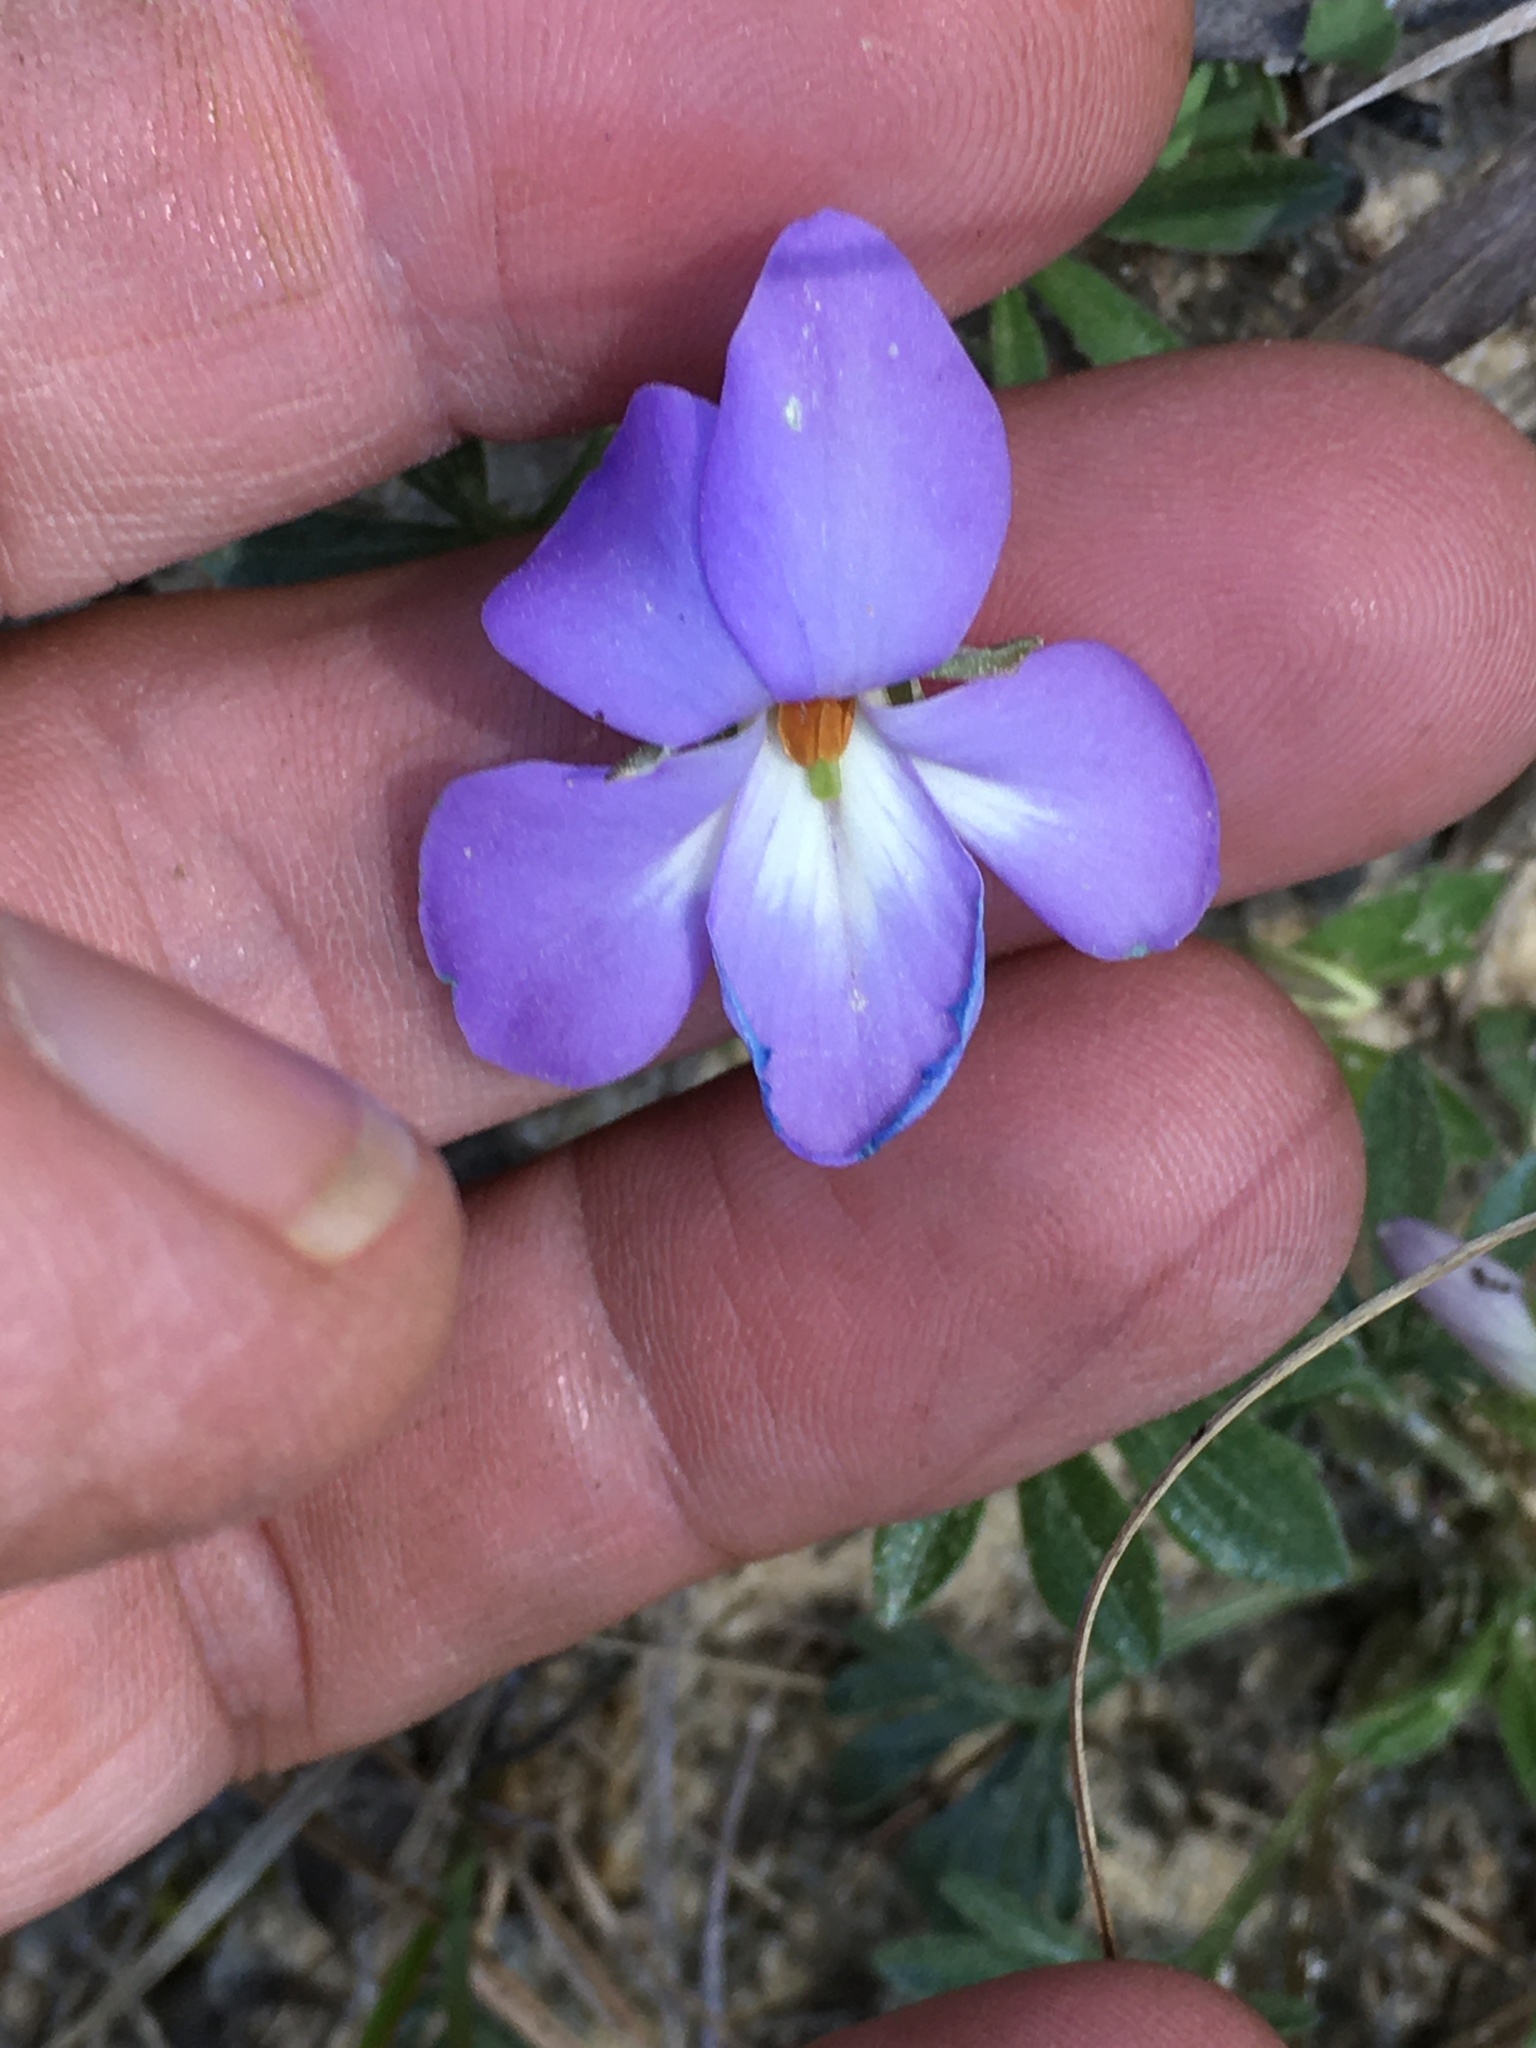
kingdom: Plantae
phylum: Tracheophyta
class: Magnoliopsida
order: Malpighiales
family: Violaceae
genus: Viola
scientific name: Viola pedata
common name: Pansy violet
